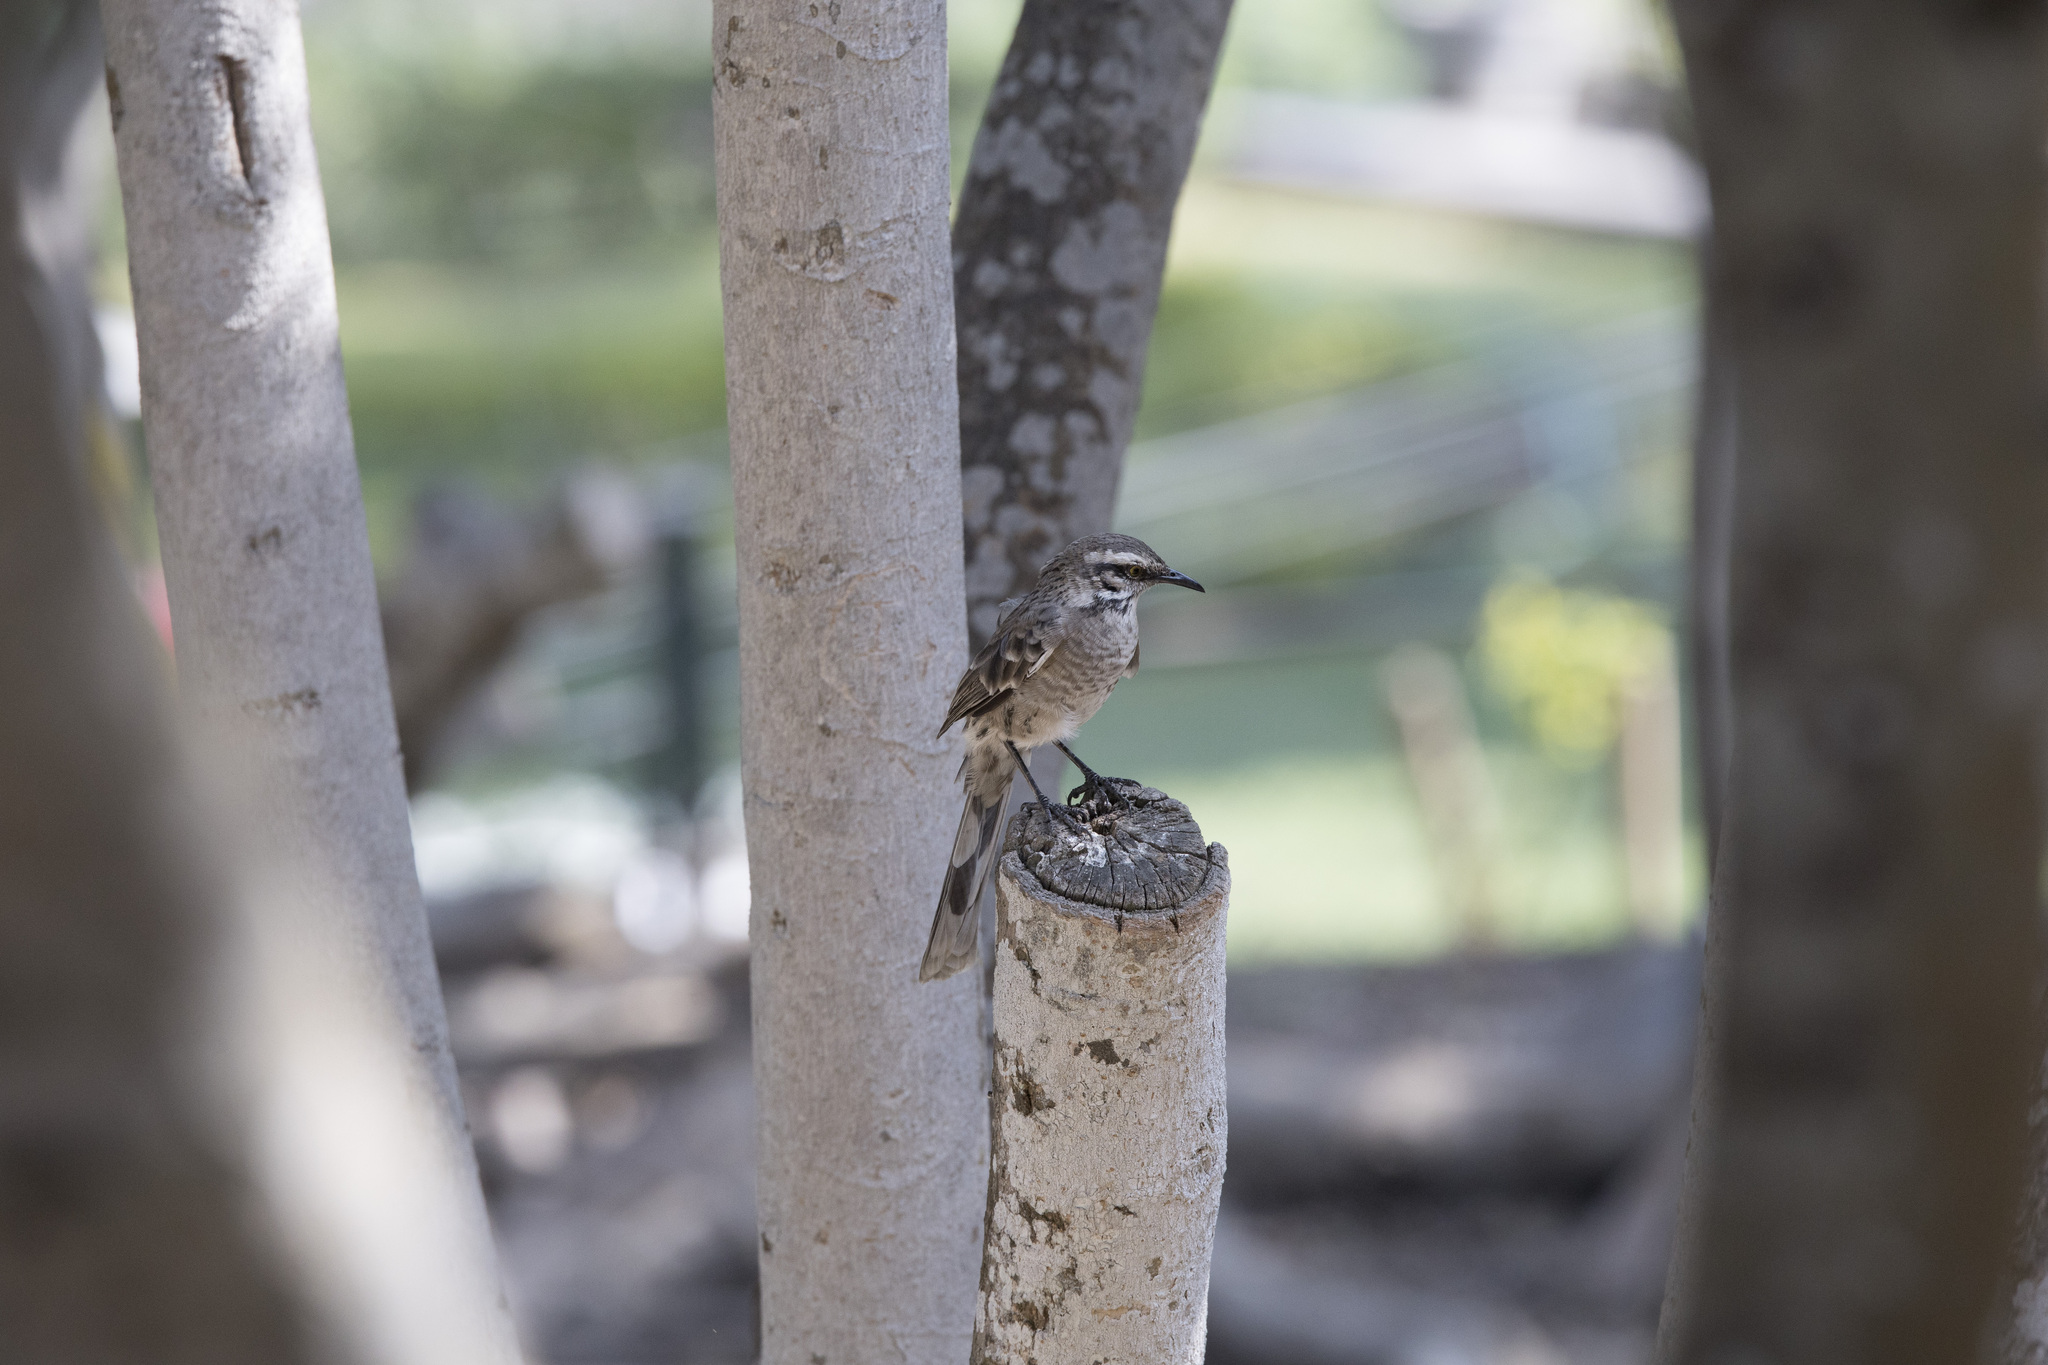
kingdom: Animalia
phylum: Chordata
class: Aves
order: Passeriformes
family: Mimidae
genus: Mimus
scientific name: Mimus longicaudatus
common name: Long-tailed mockingbird
